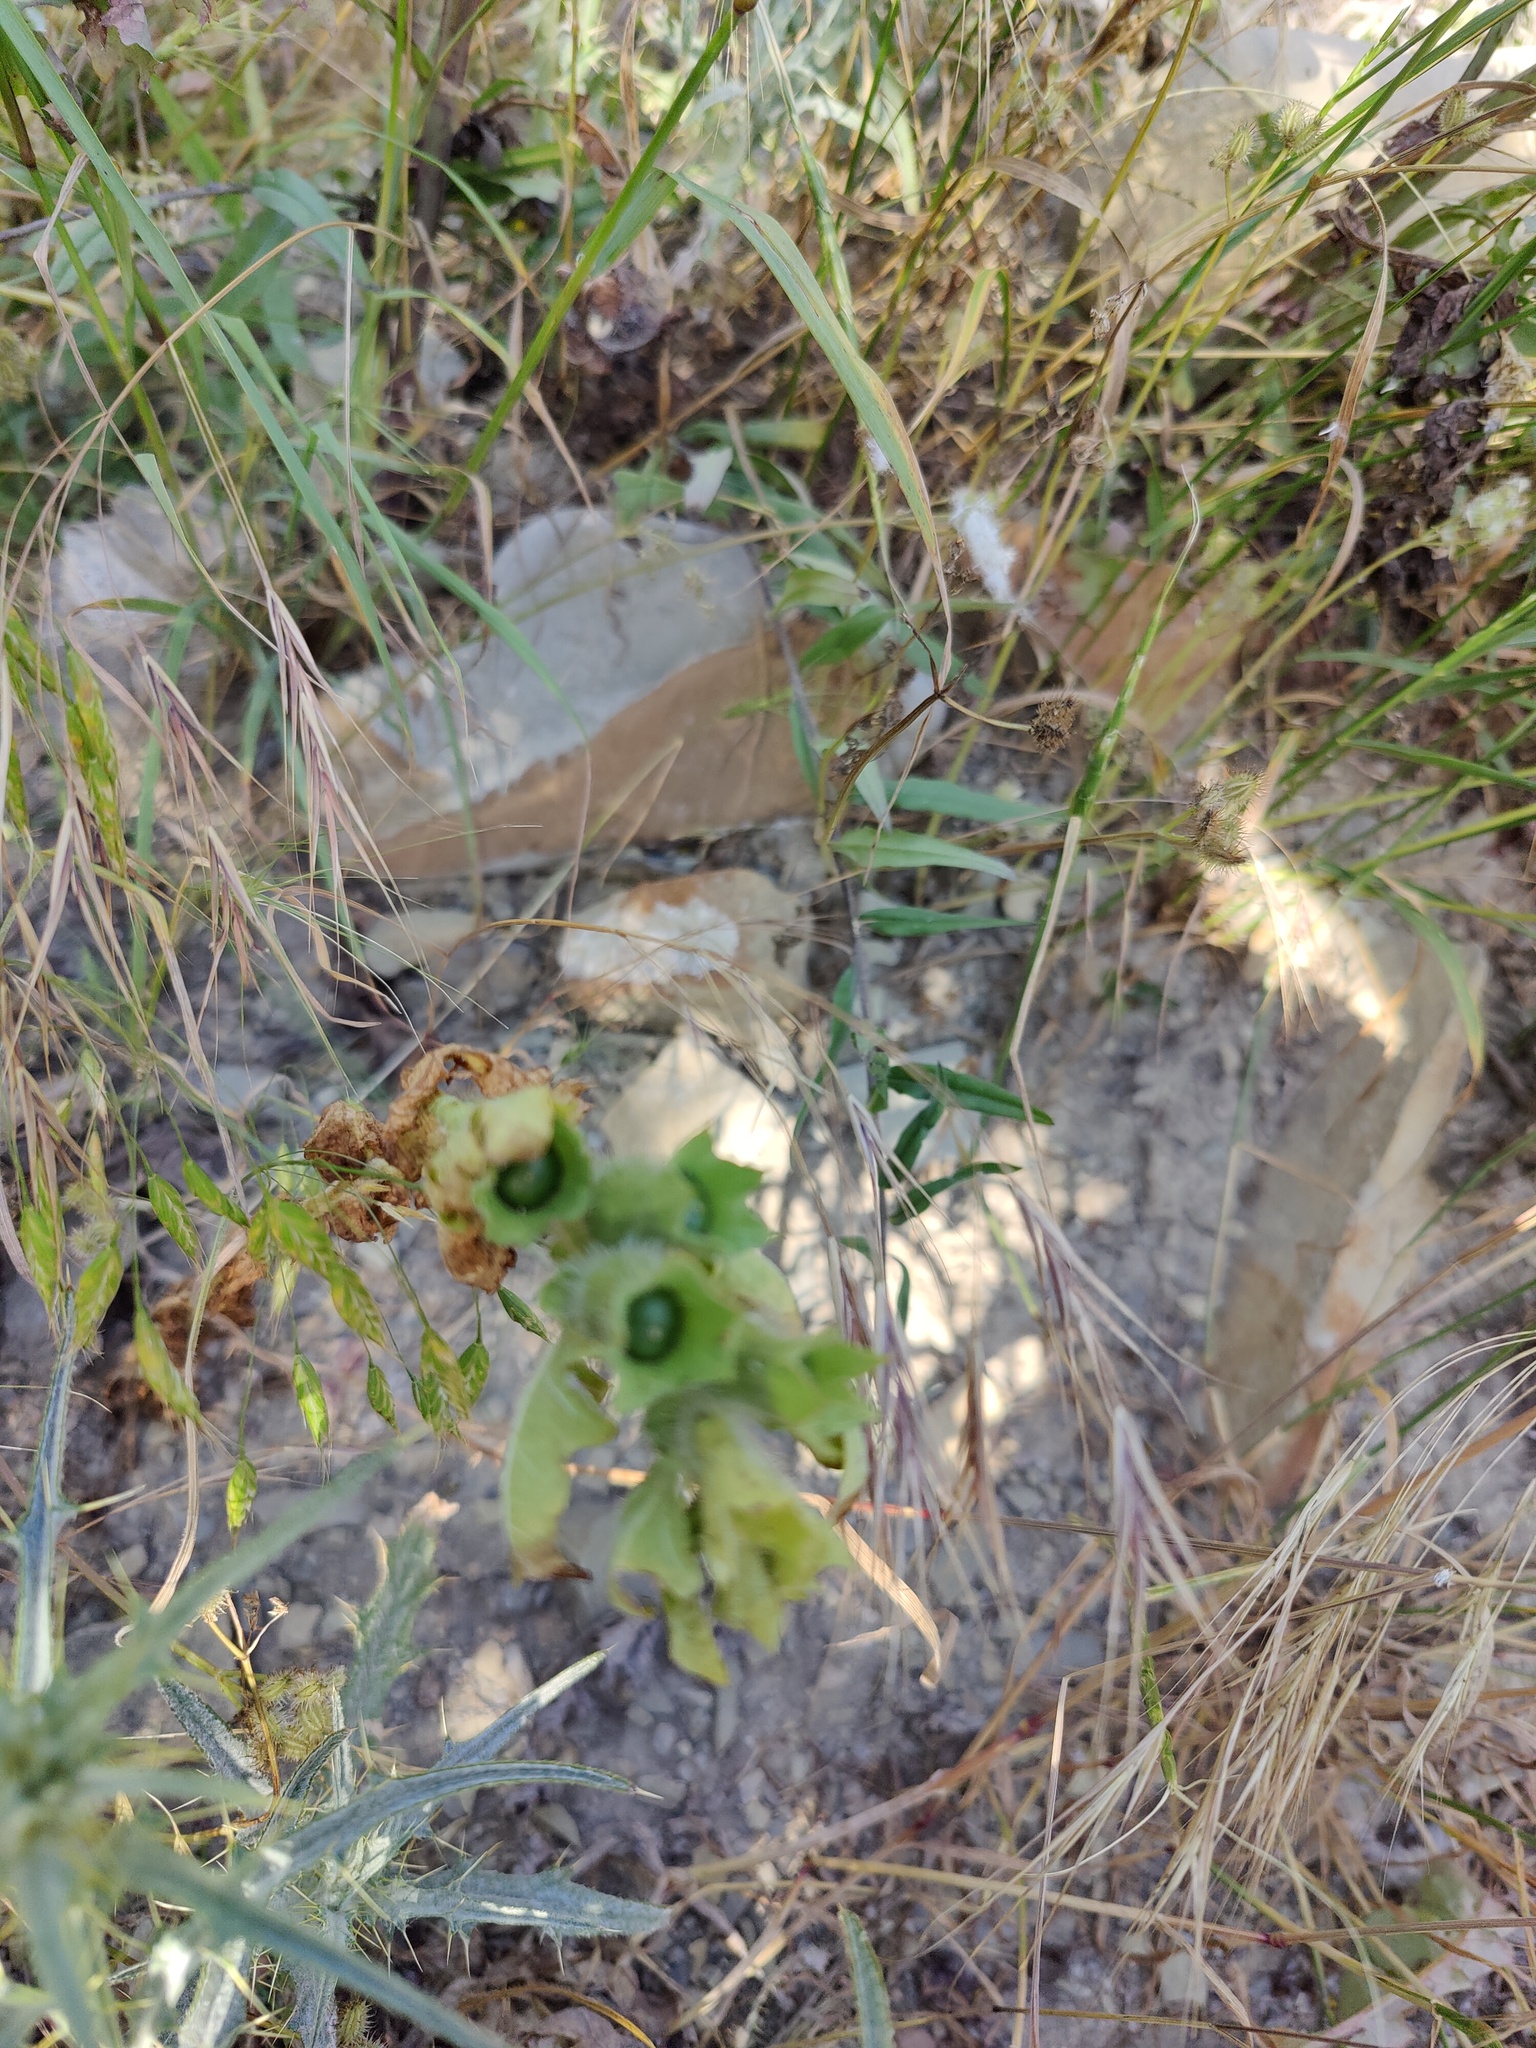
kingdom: Plantae
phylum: Tracheophyta
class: Magnoliopsida
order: Solanales
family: Solanaceae
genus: Hyoscyamus
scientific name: Hyoscyamus niger
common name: Henbane
